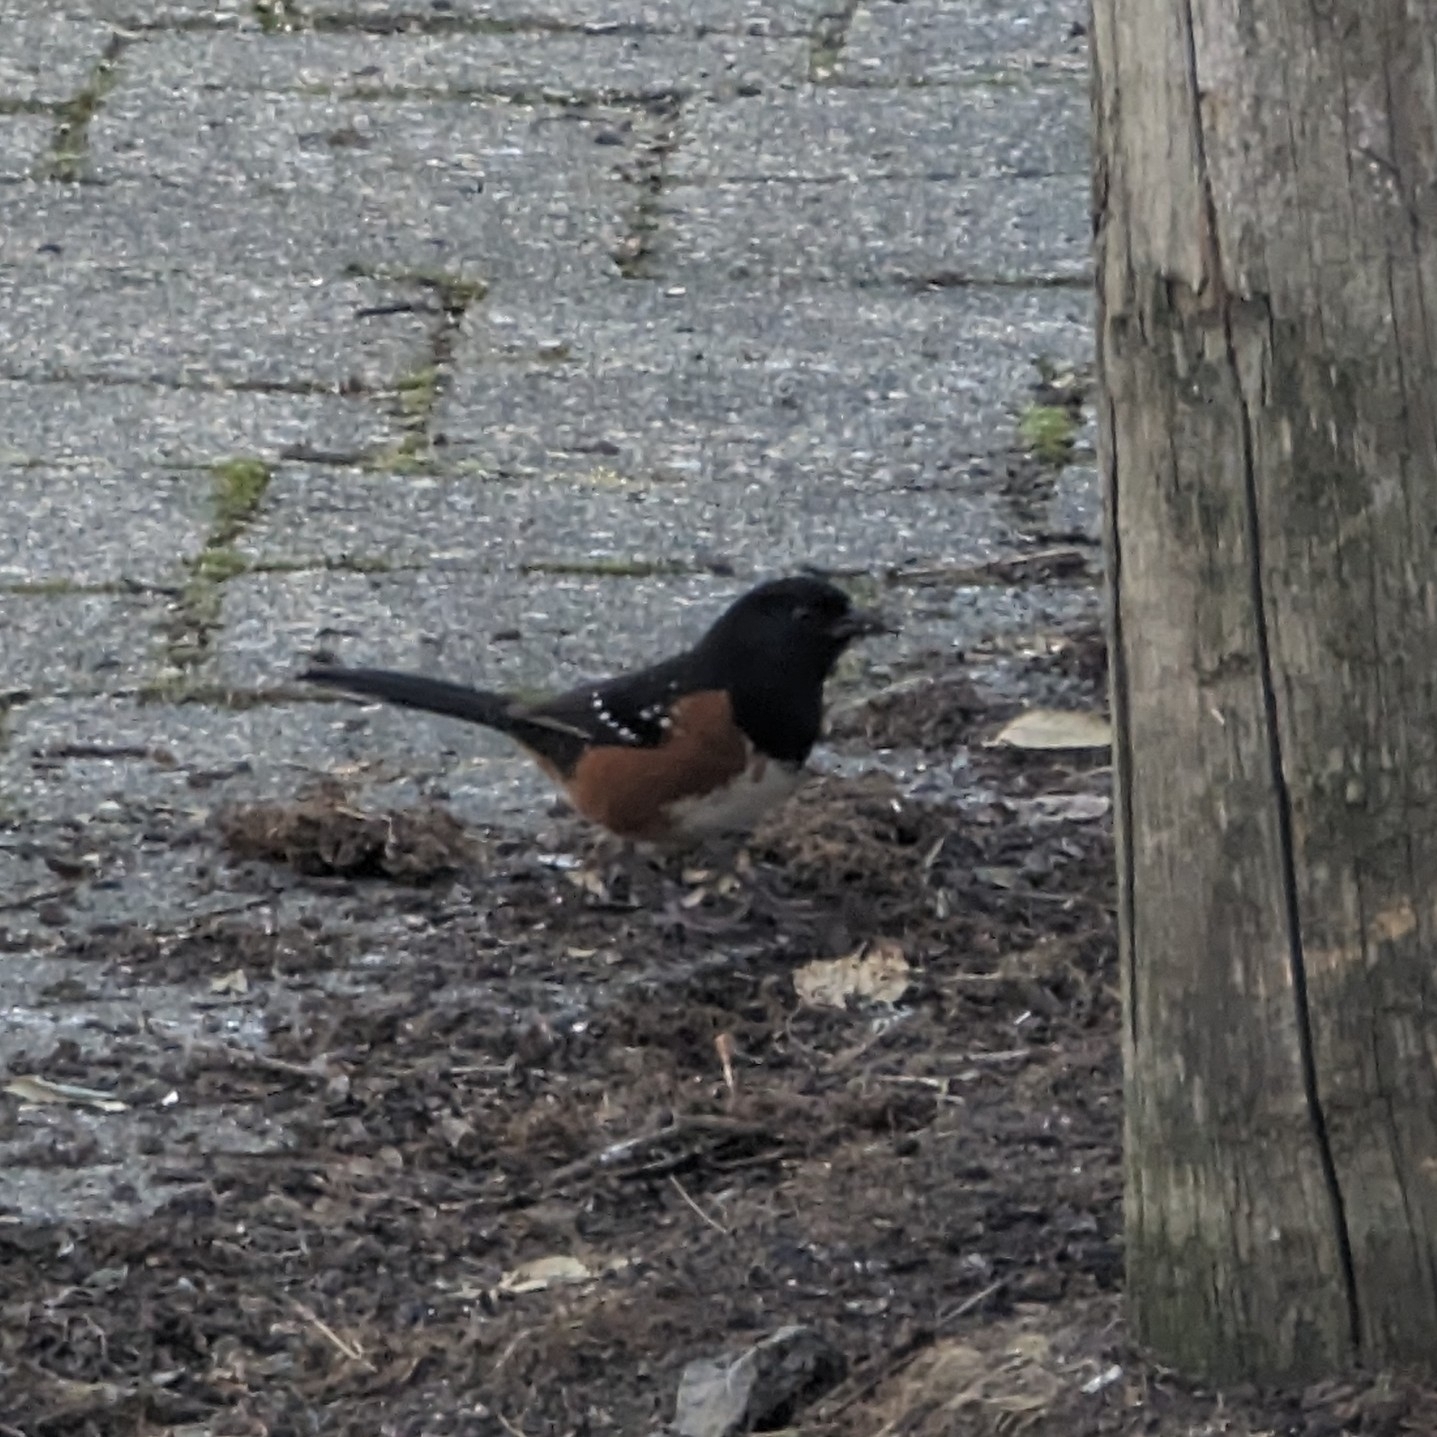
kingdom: Animalia
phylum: Chordata
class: Aves
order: Passeriformes
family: Passerellidae
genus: Pipilo
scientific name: Pipilo maculatus
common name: Spotted towhee
